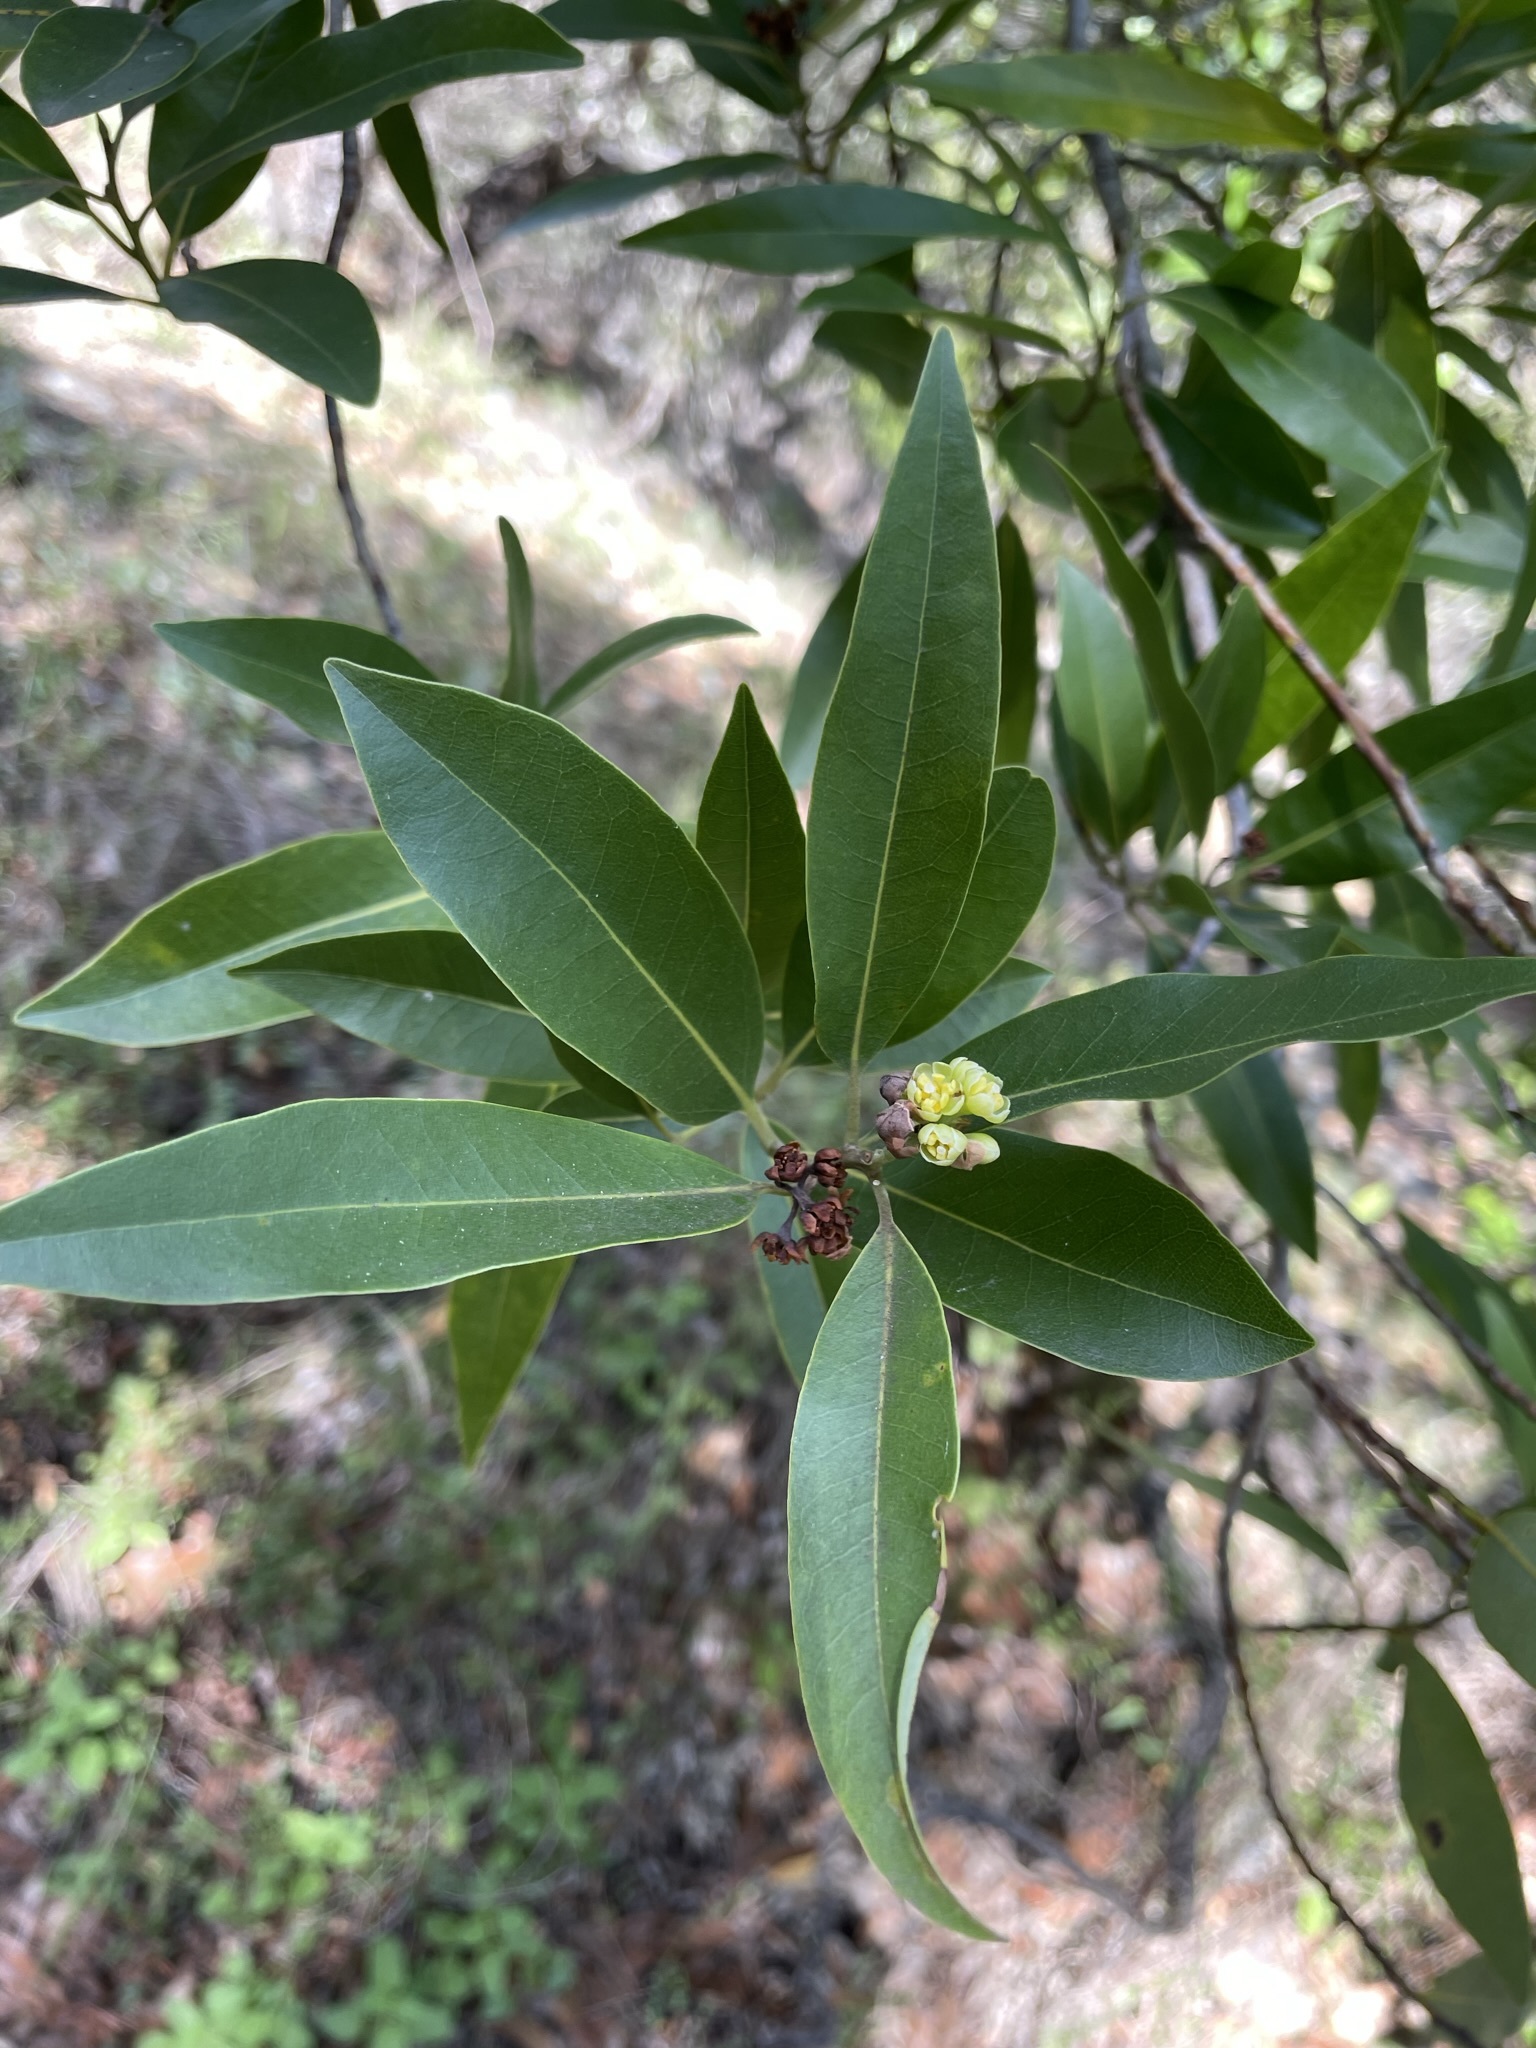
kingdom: Plantae
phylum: Tracheophyta
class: Magnoliopsida
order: Laurales
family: Lauraceae
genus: Umbellularia
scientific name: Umbellularia californica
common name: California bay
